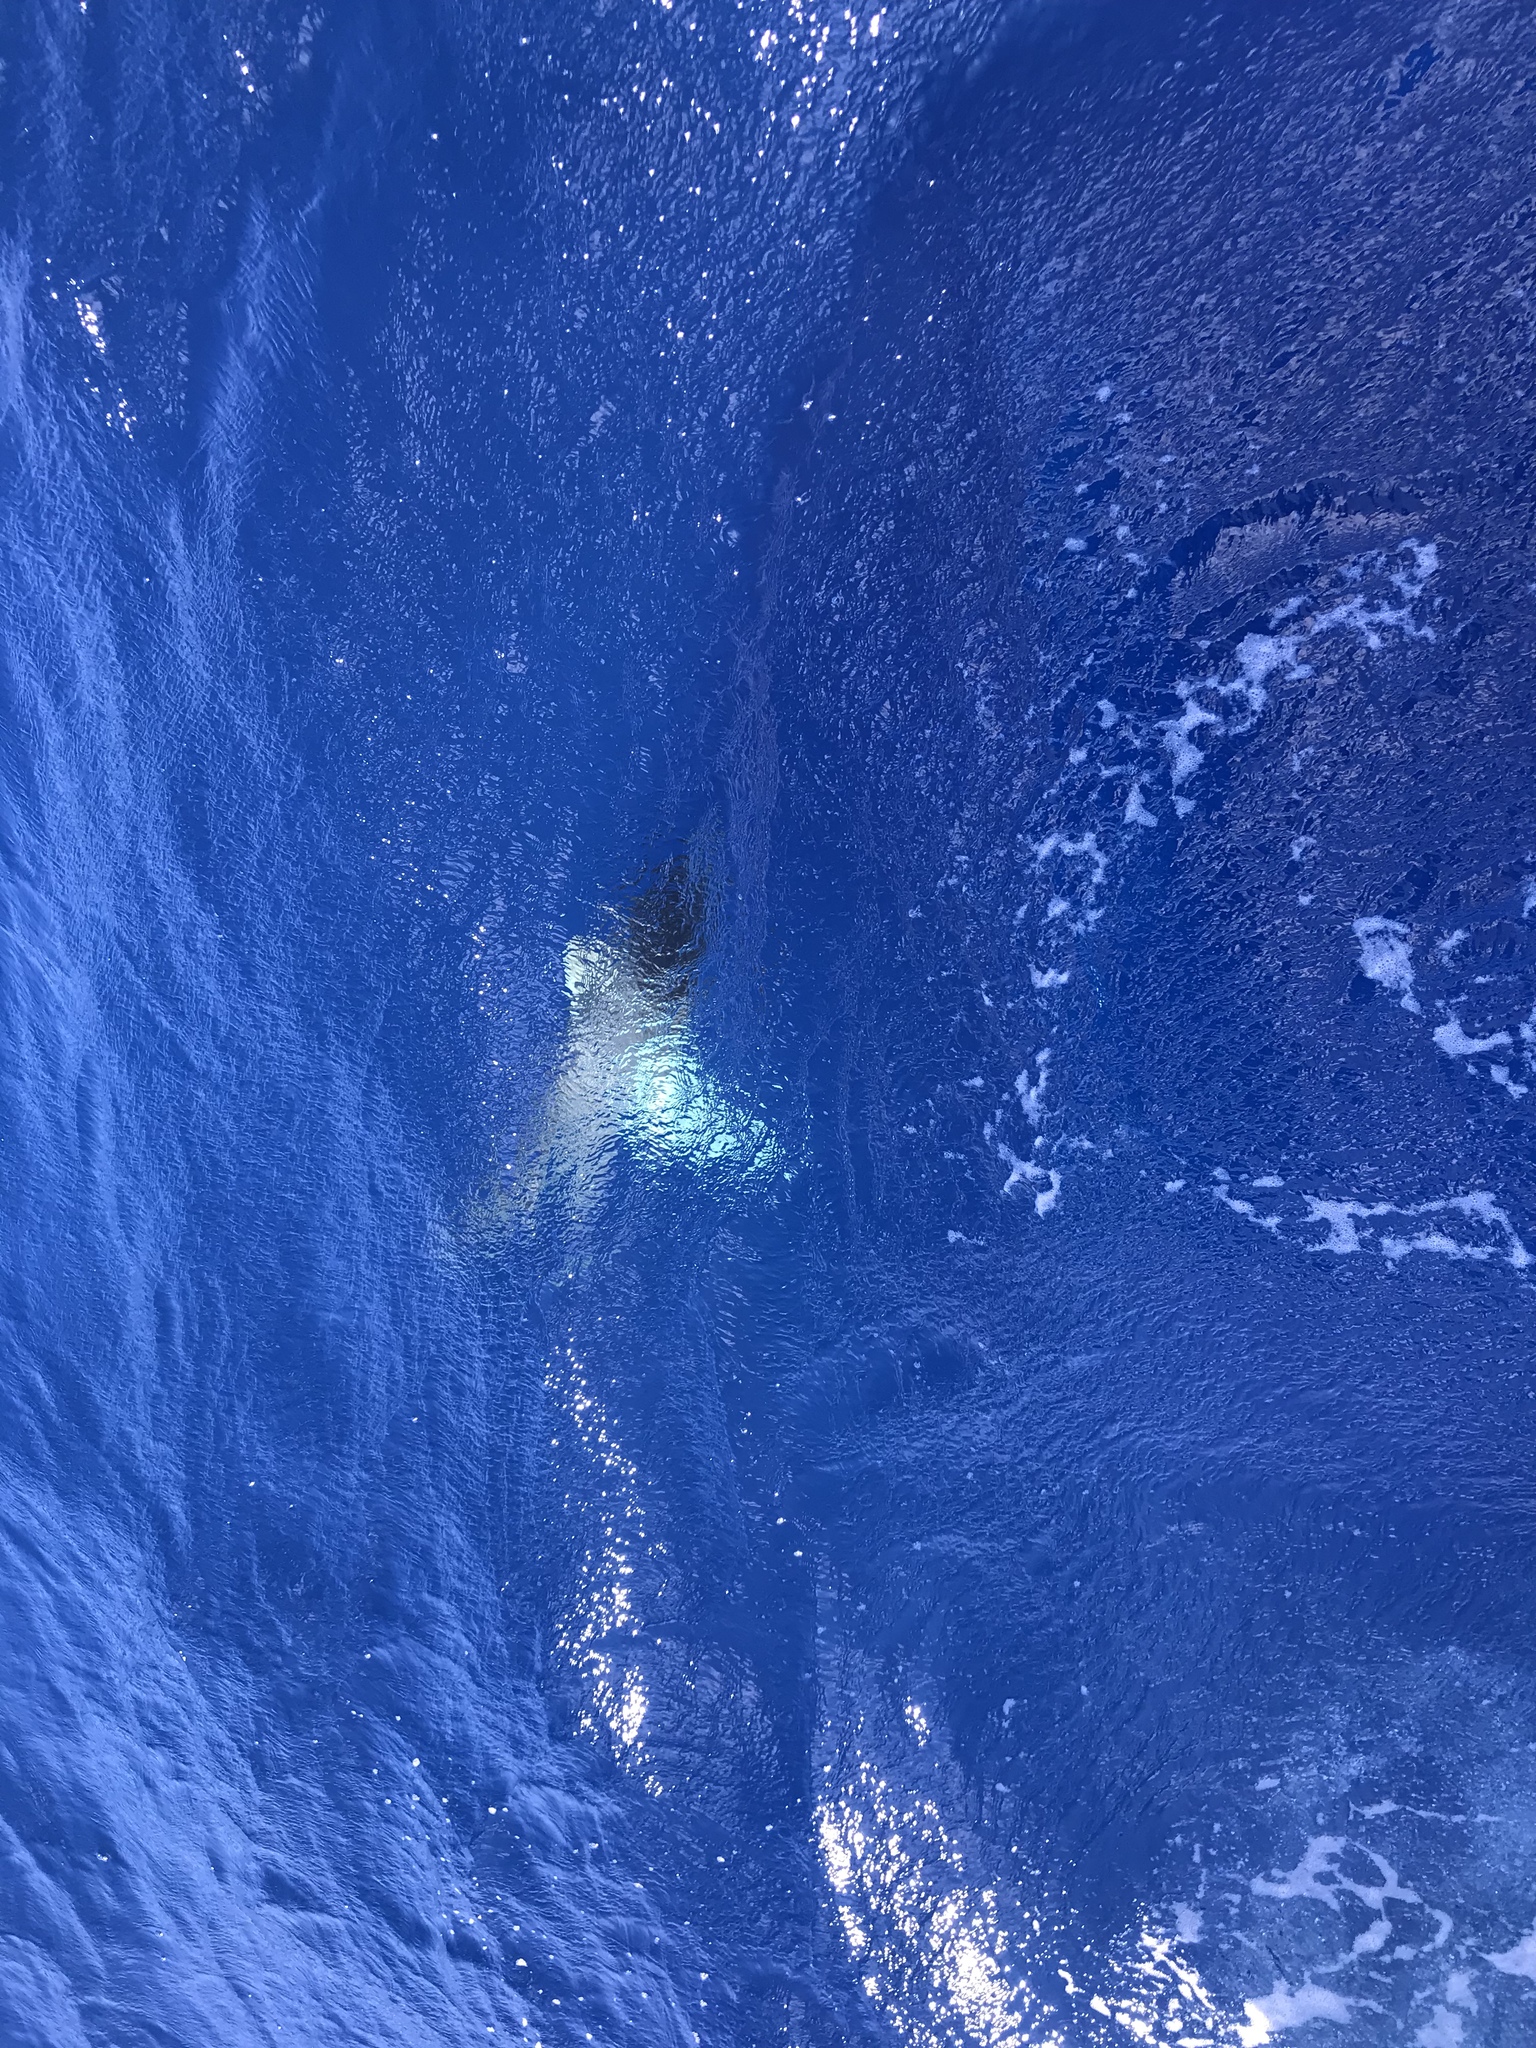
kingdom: Animalia
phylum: Chordata
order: Tetraodontiformes
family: Molidae
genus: Mola
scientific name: Mola mola
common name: Ocean sunfish
